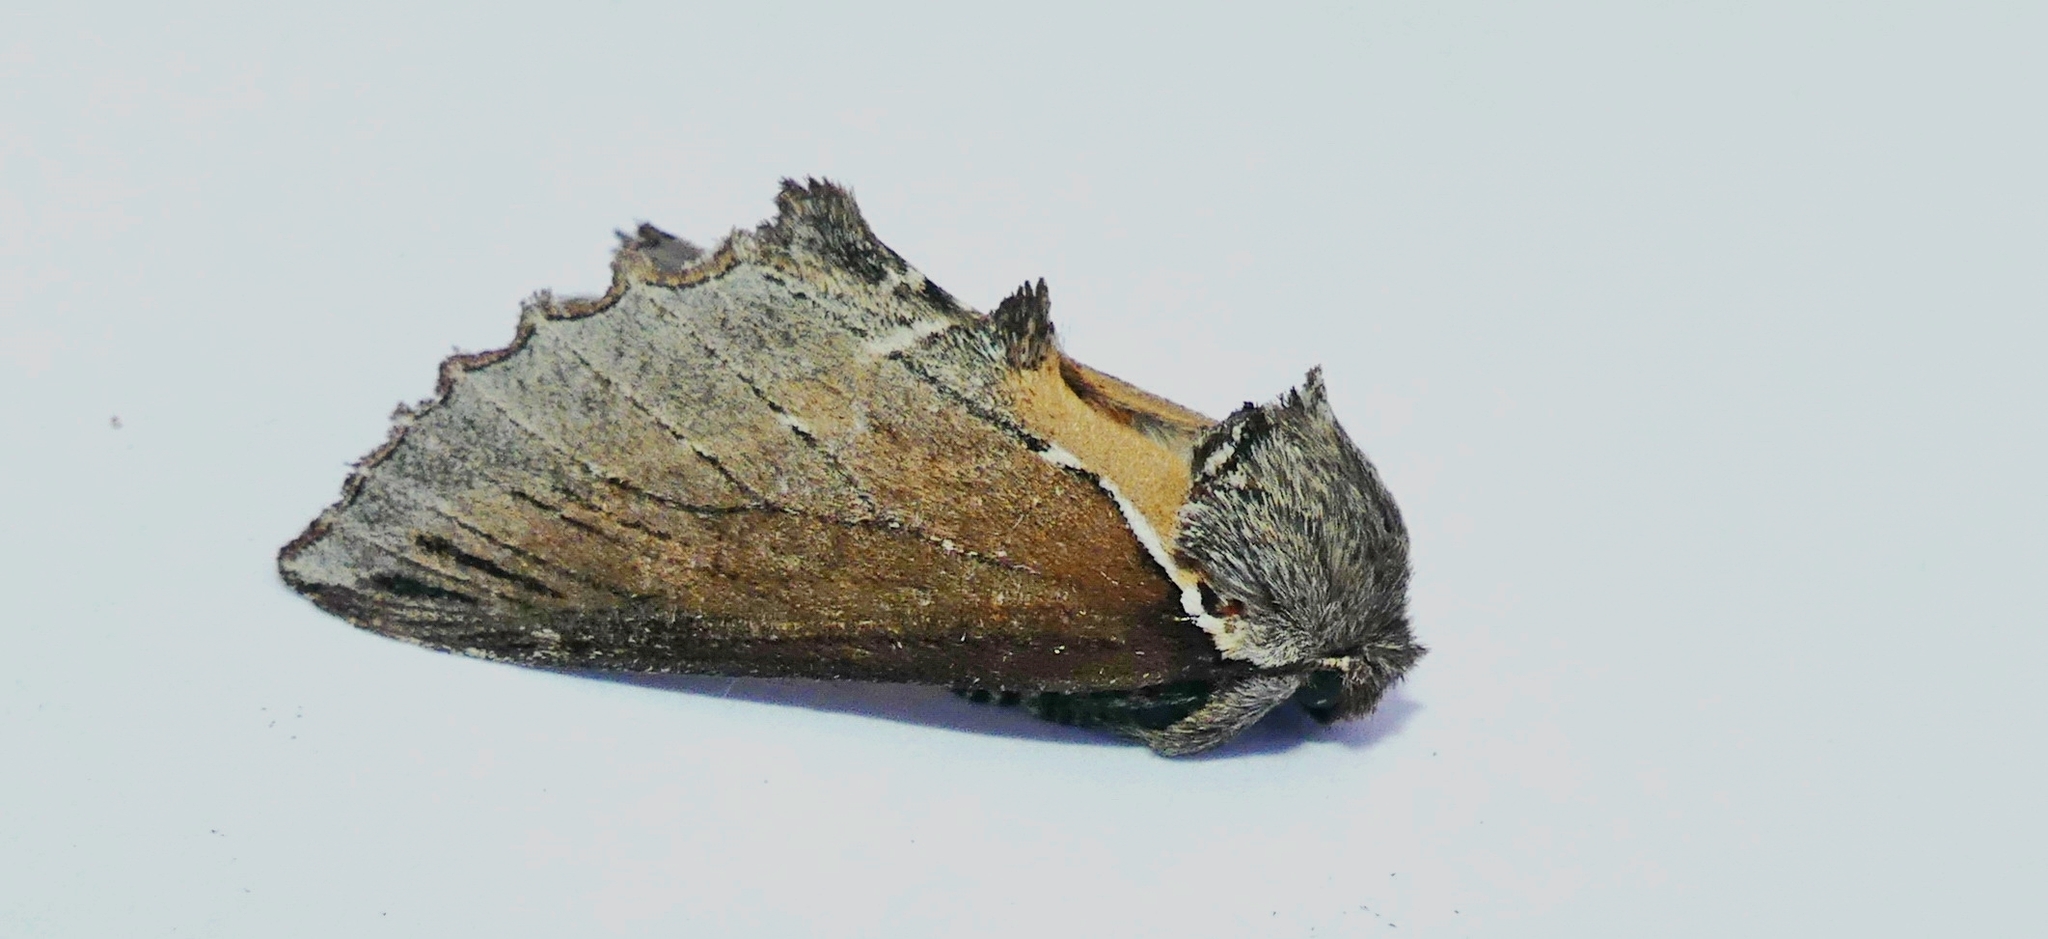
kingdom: Animalia
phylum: Arthropoda
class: Insecta
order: Lepidoptera
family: Notodontidae
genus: Pheosidea
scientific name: Pheosidea elegans
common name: Elegant prominent
